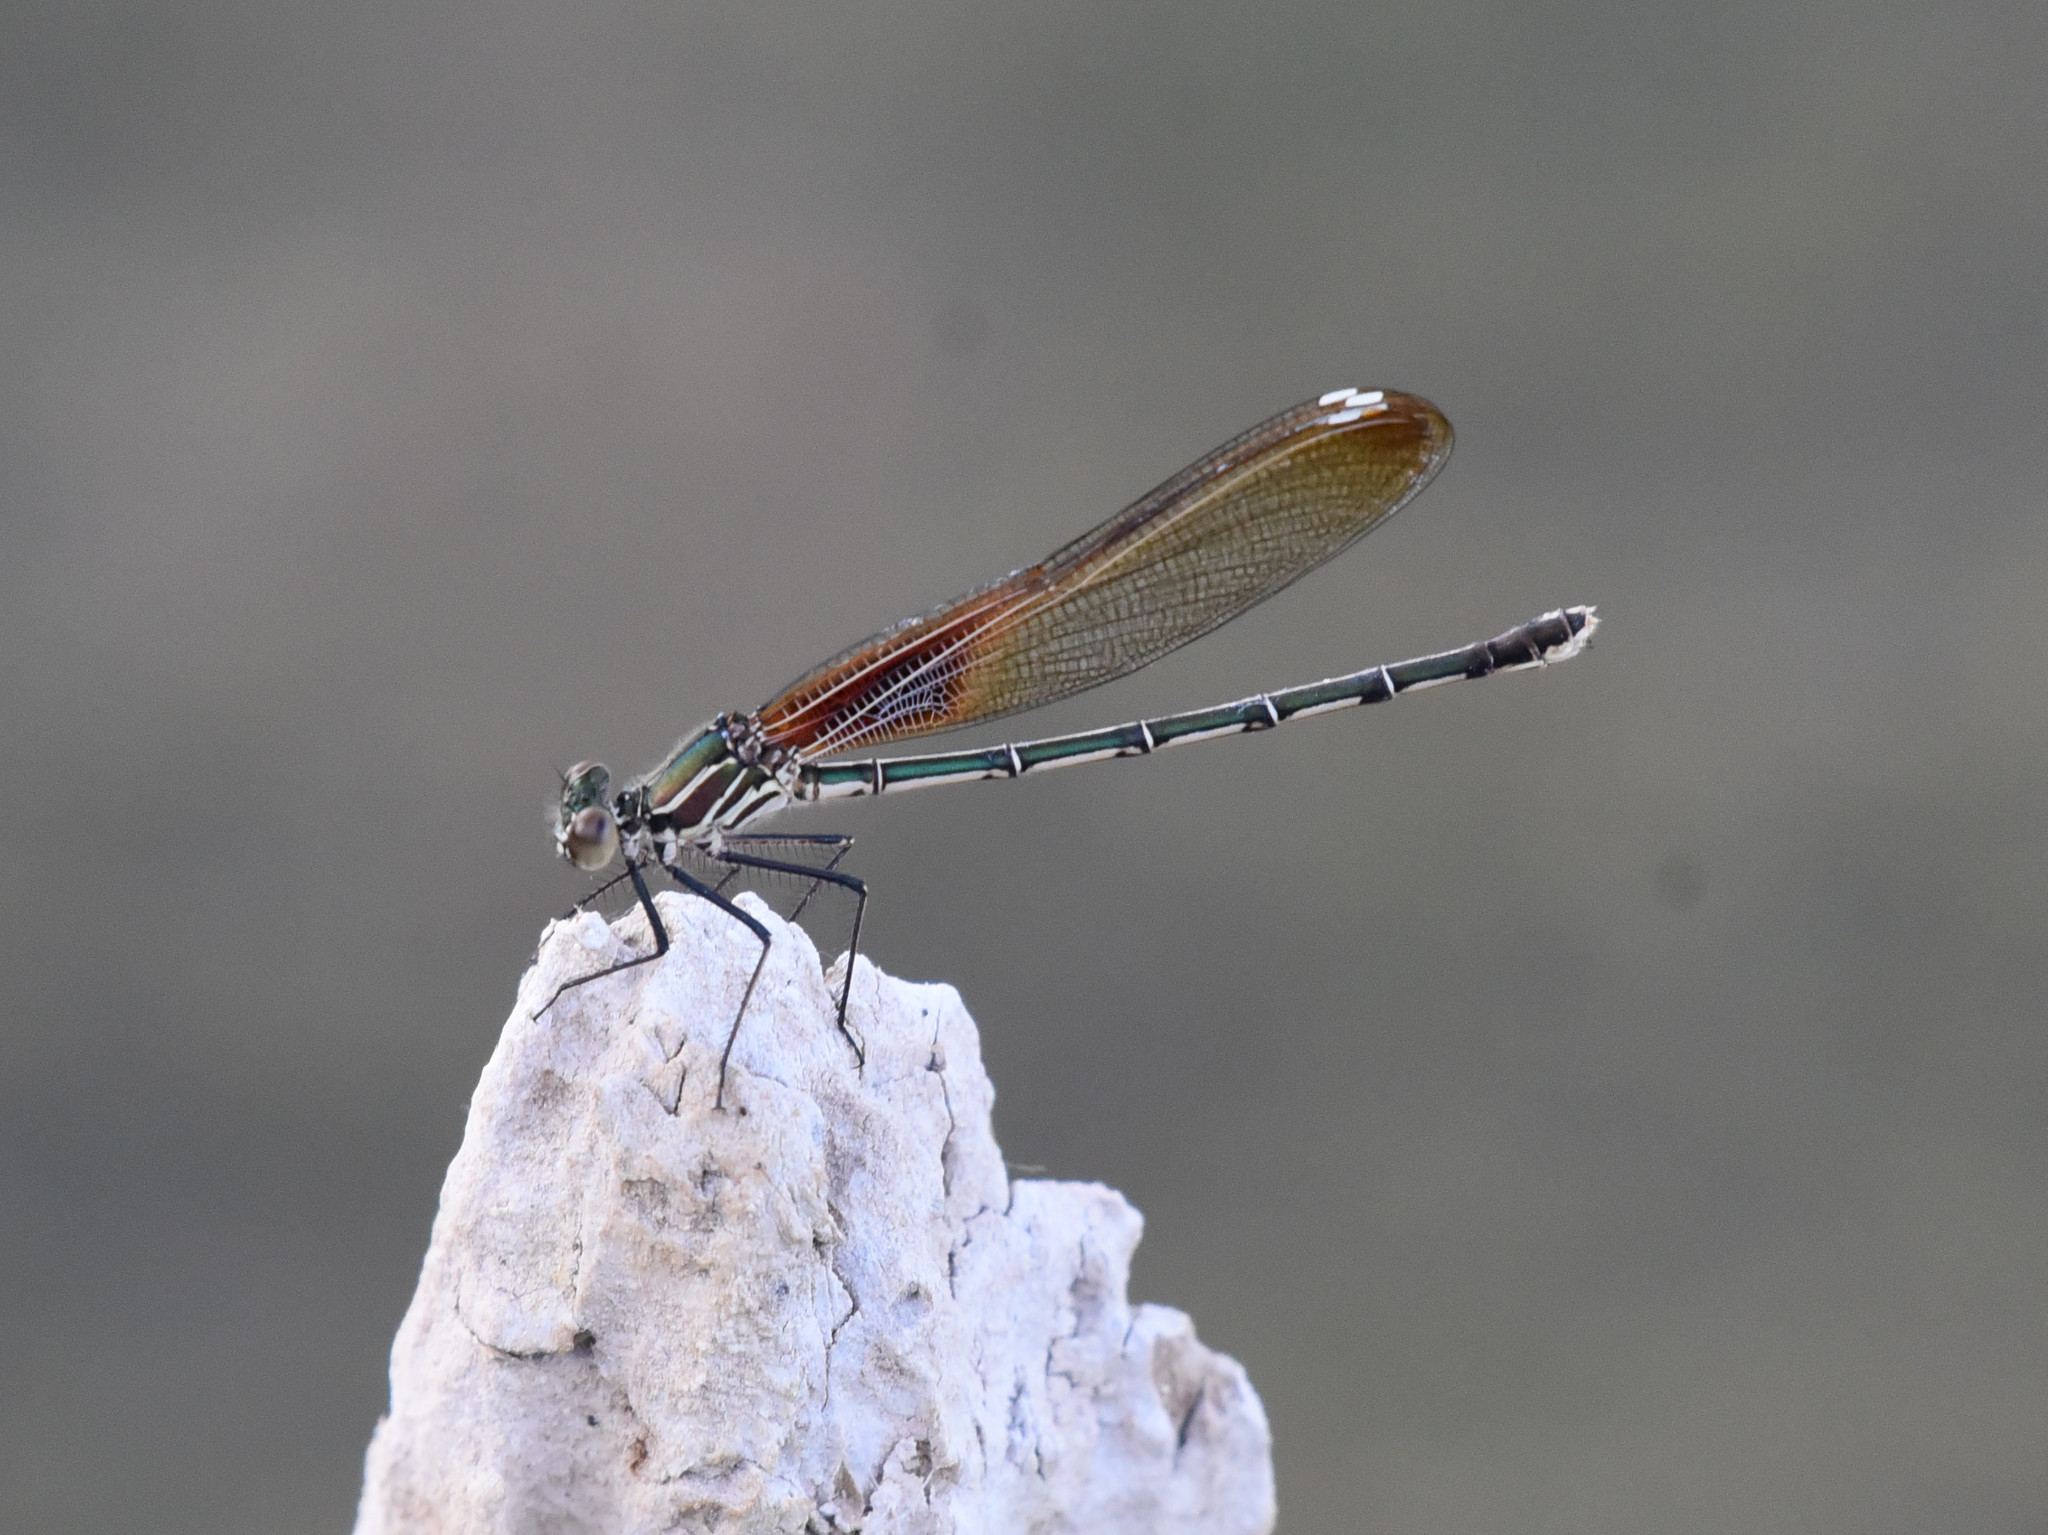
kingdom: Animalia
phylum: Arthropoda
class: Insecta
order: Odonata
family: Calopterygidae
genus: Hetaerina
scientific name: Hetaerina americana
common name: American rubyspot
